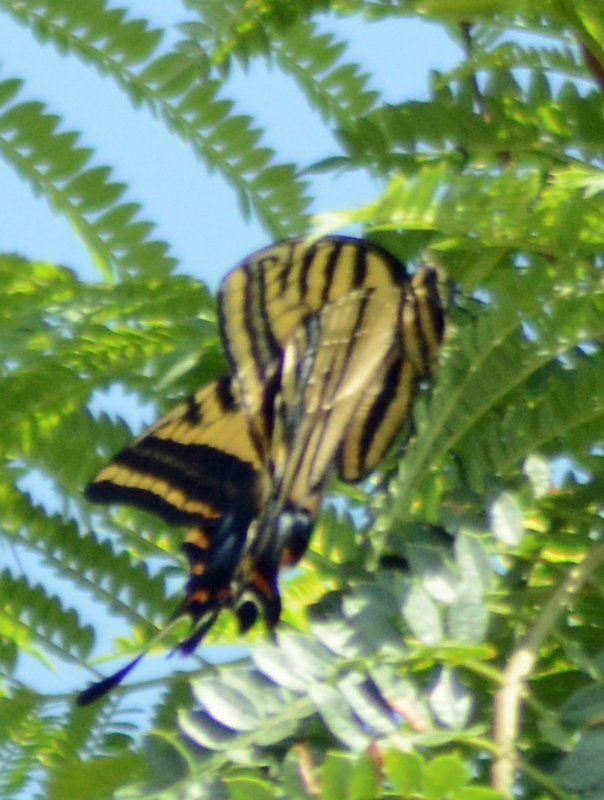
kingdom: Animalia
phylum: Arthropoda
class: Insecta
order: Lepidoptera
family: Papilionidae
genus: Papilio
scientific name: Papilio multicaudata
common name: Two-tailed tiger swallowtail
